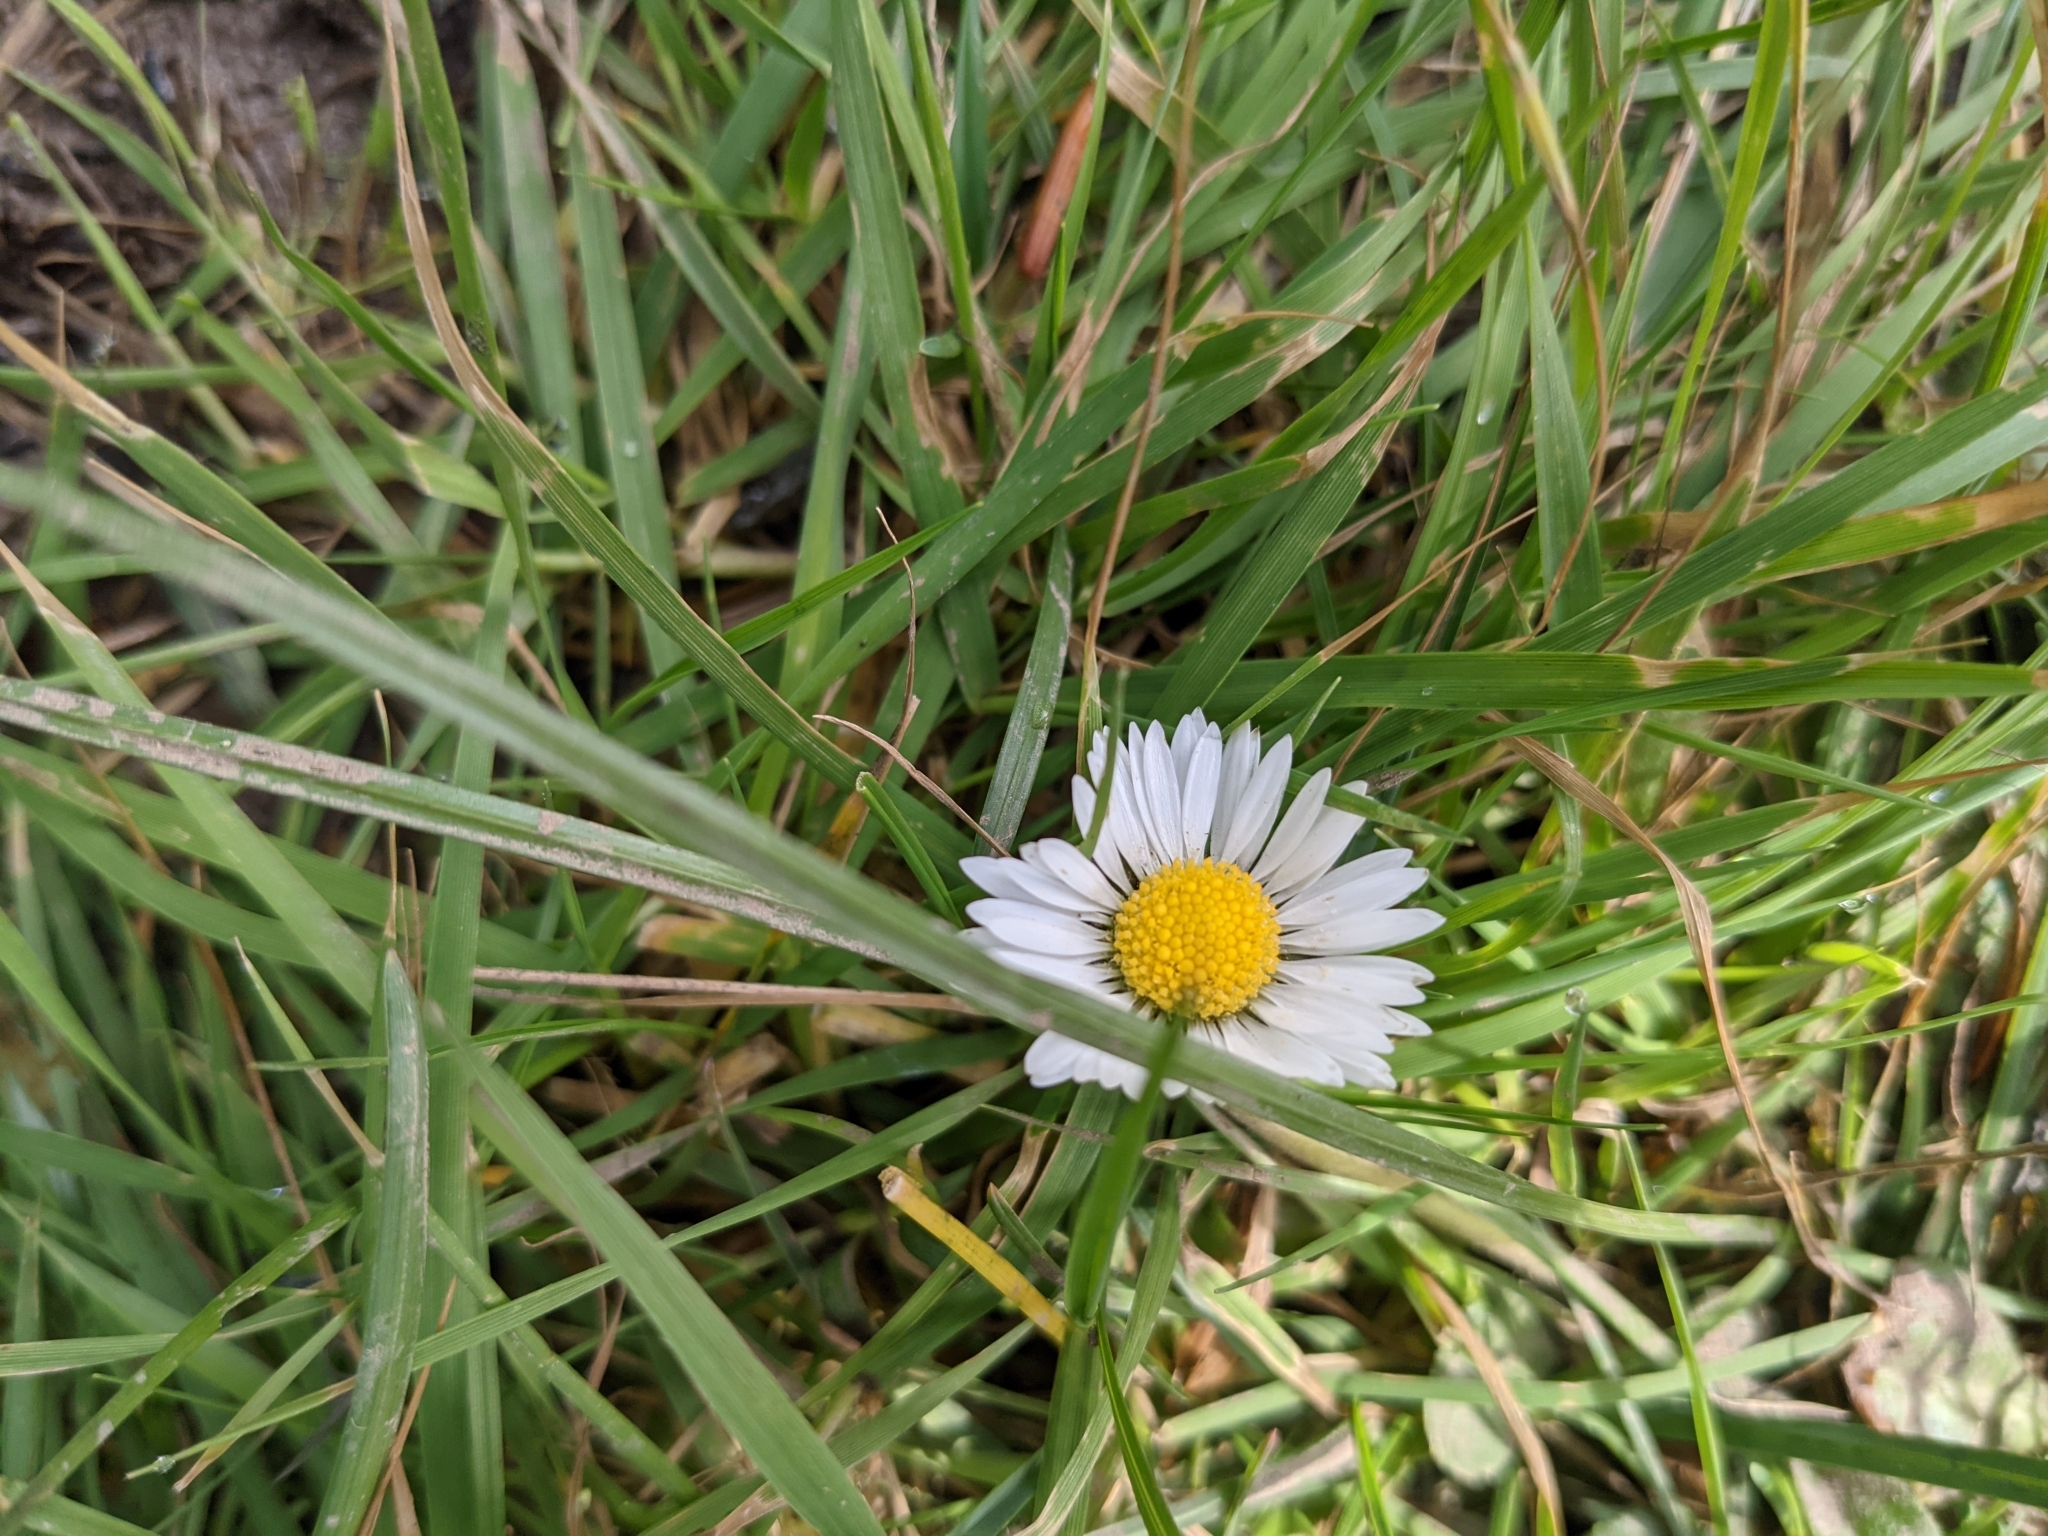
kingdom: Plantae
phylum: Tracheophyta
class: Magnoliopsida
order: Asterales
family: Asteraceae
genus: Bellis
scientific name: Bellis perennis
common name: Lawndaisy
